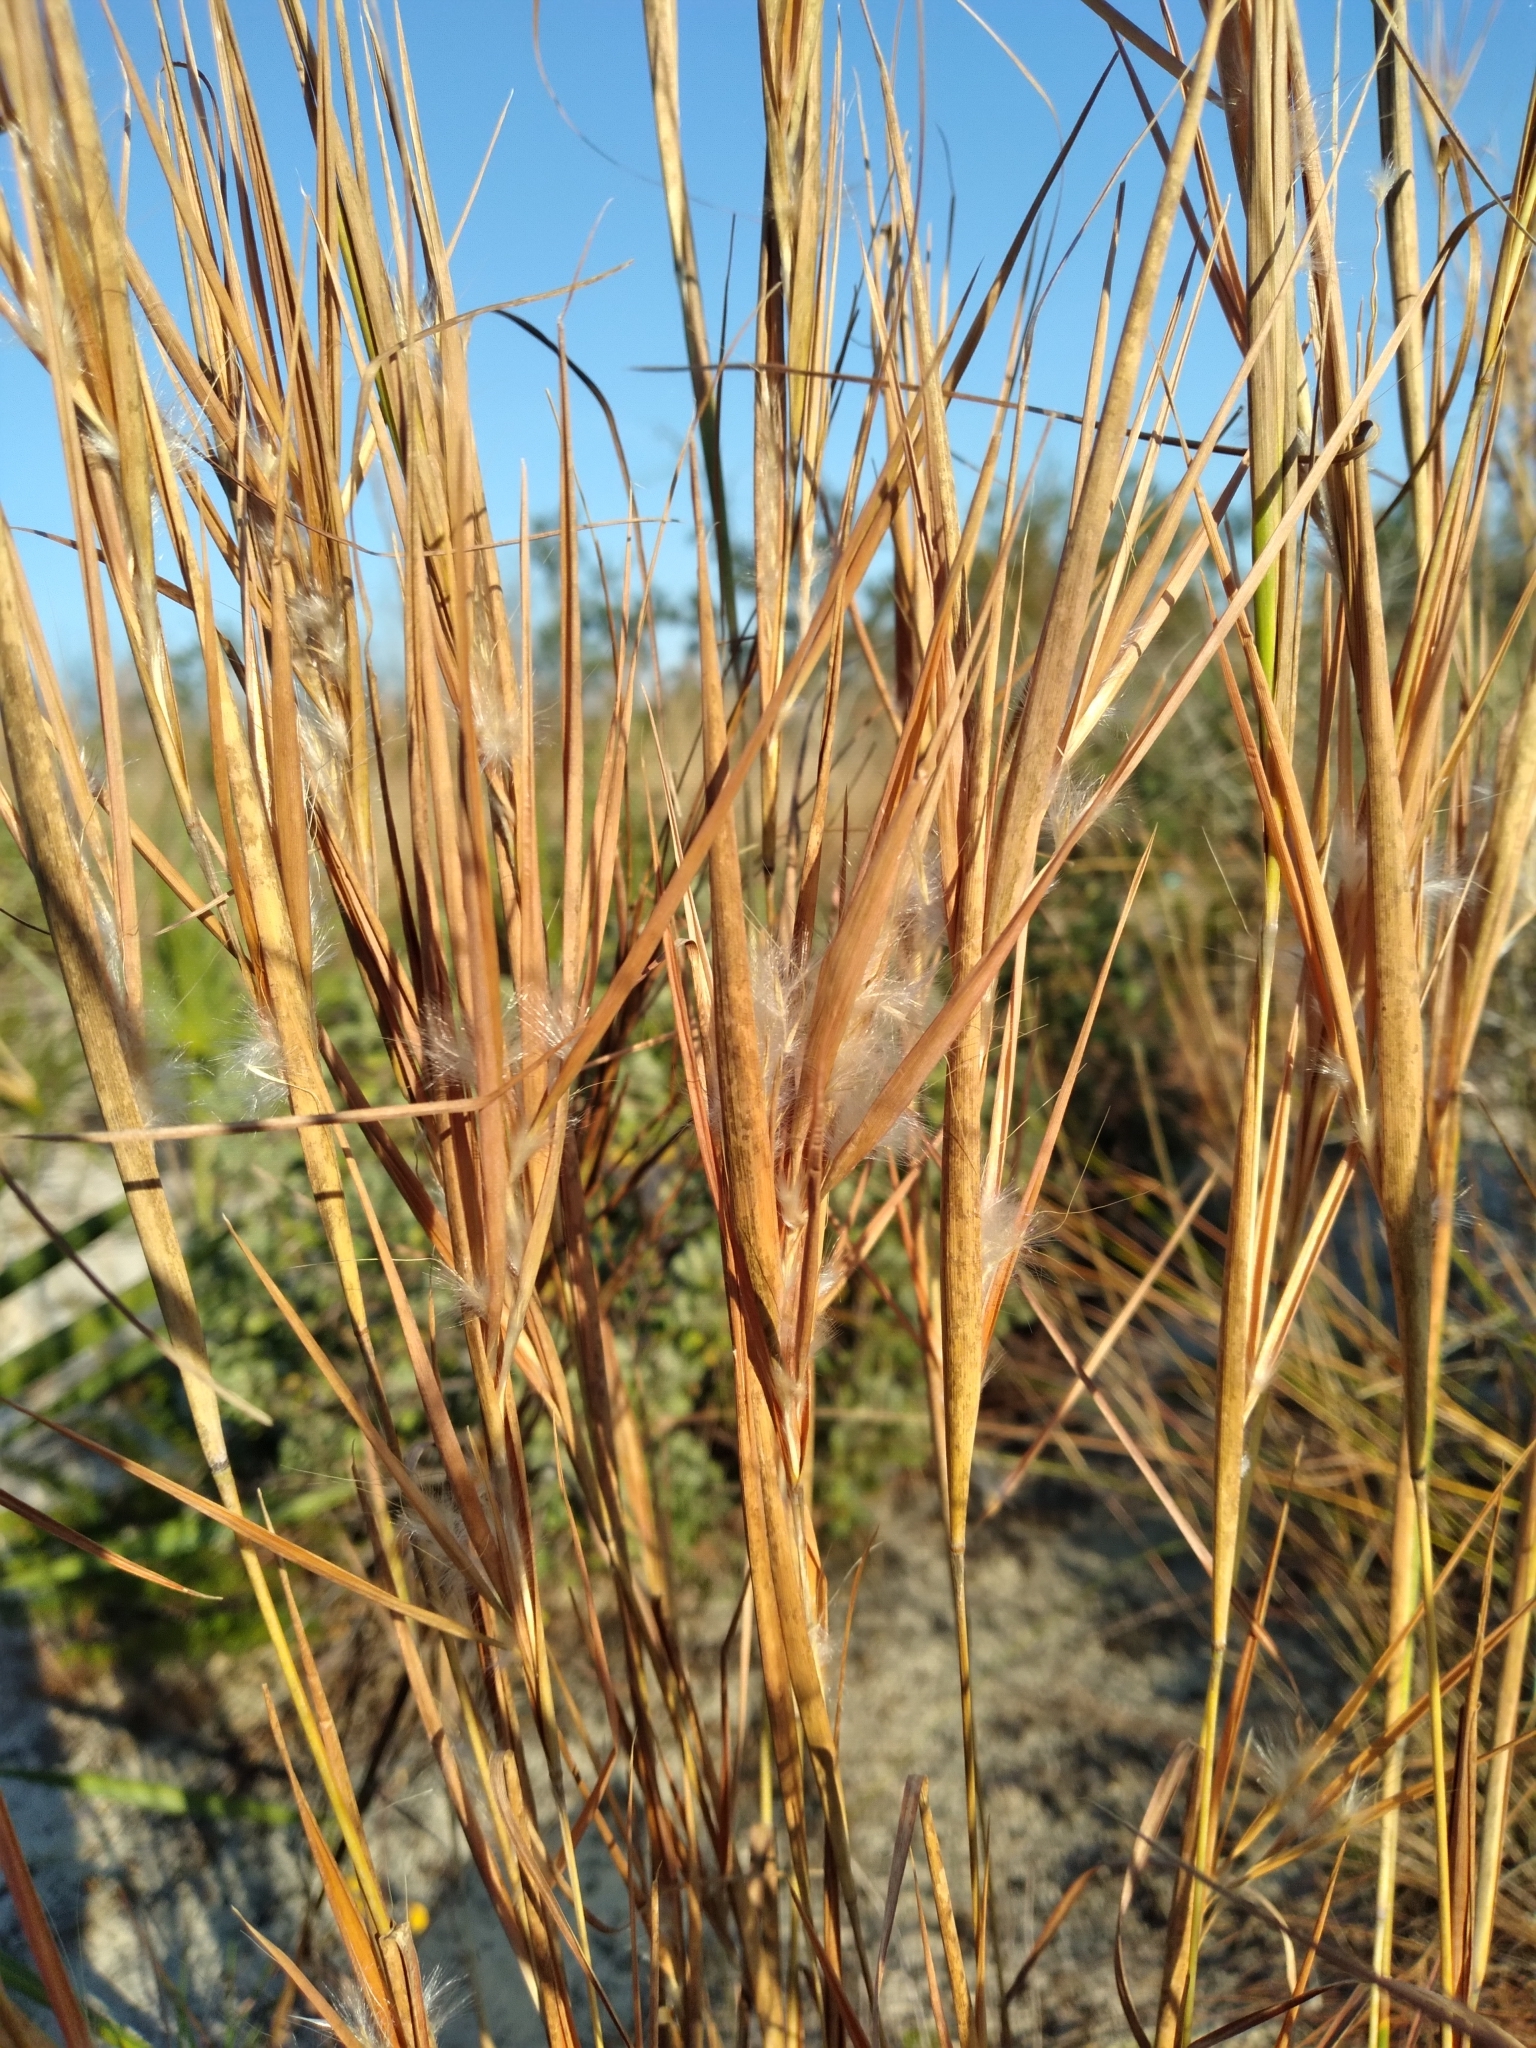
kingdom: Plantae
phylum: Tracheophyta
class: Liliopsida
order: Poales
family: Poaceae
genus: Andropogon
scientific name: Andropogon gyrans
